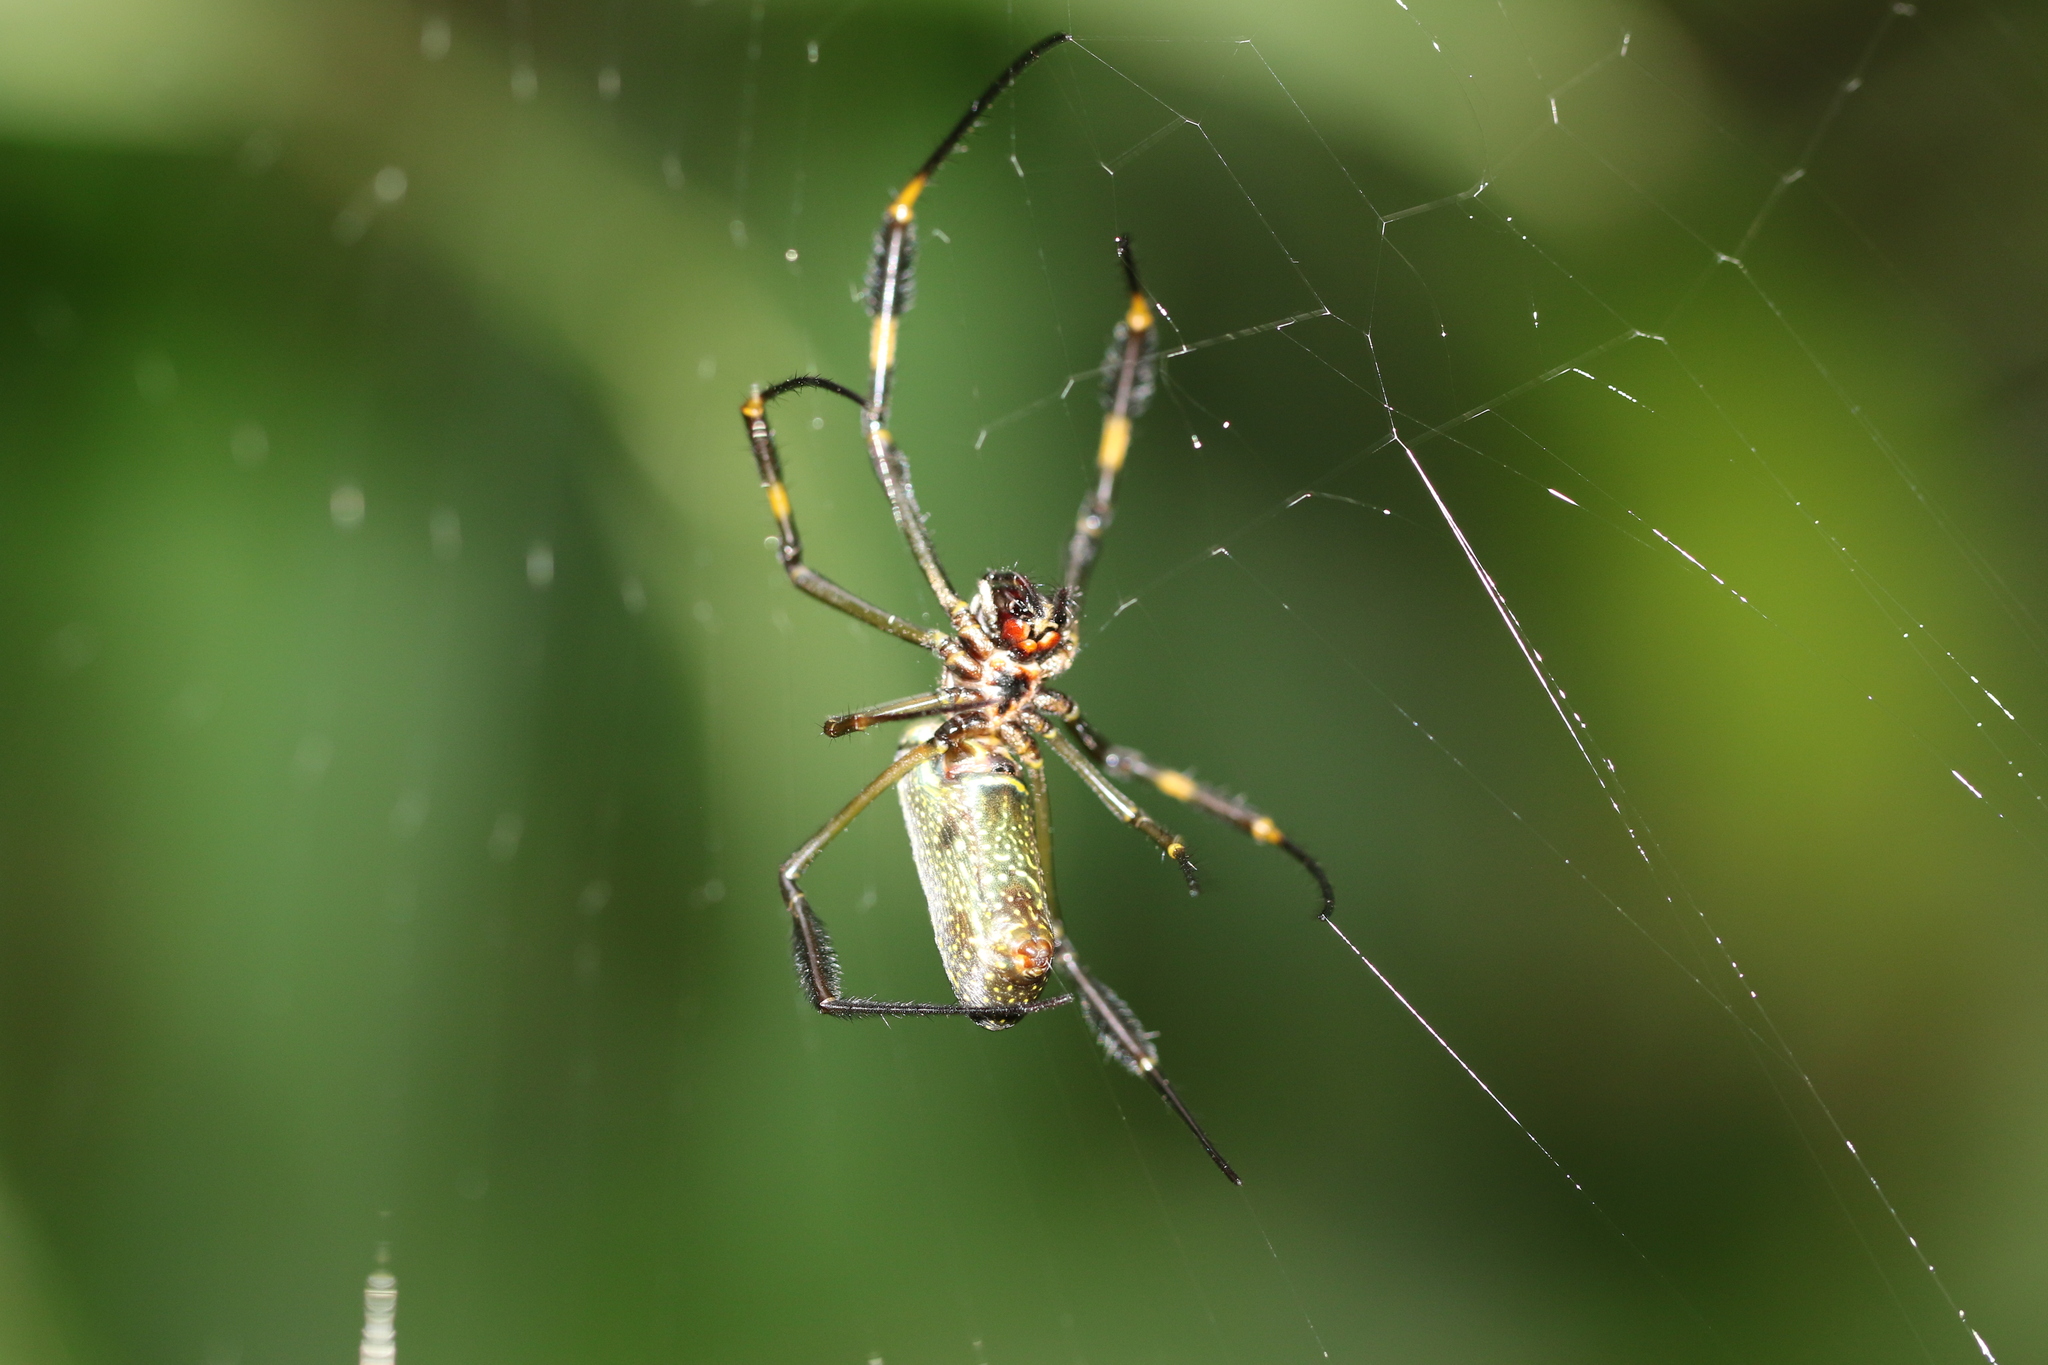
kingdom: Animalia
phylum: Arthropoda
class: Arachnida
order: Araneae
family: Araneidae
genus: Trichonephila
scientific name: Trichonephila clavipes
